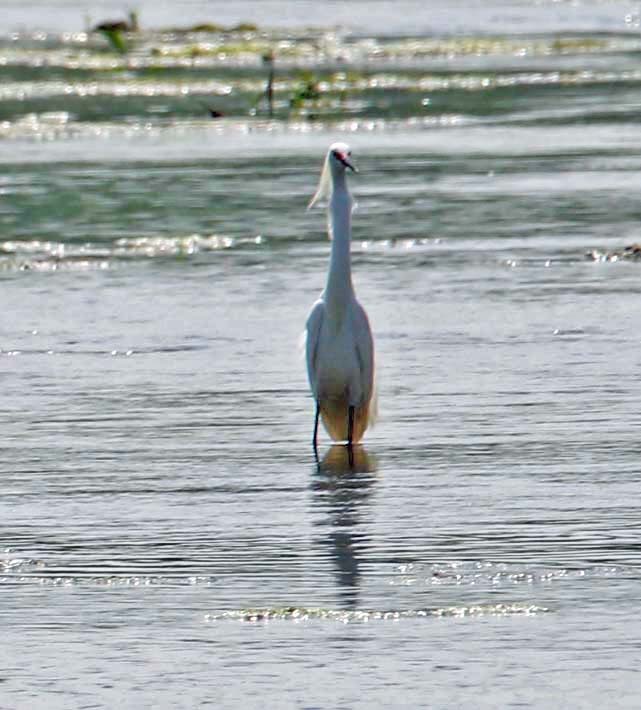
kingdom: Animalia
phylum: Chordata
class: Aves
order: Pelecaniformes
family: Ardeidae
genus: Egretta
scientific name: Egretta thula
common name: Snowy egret
